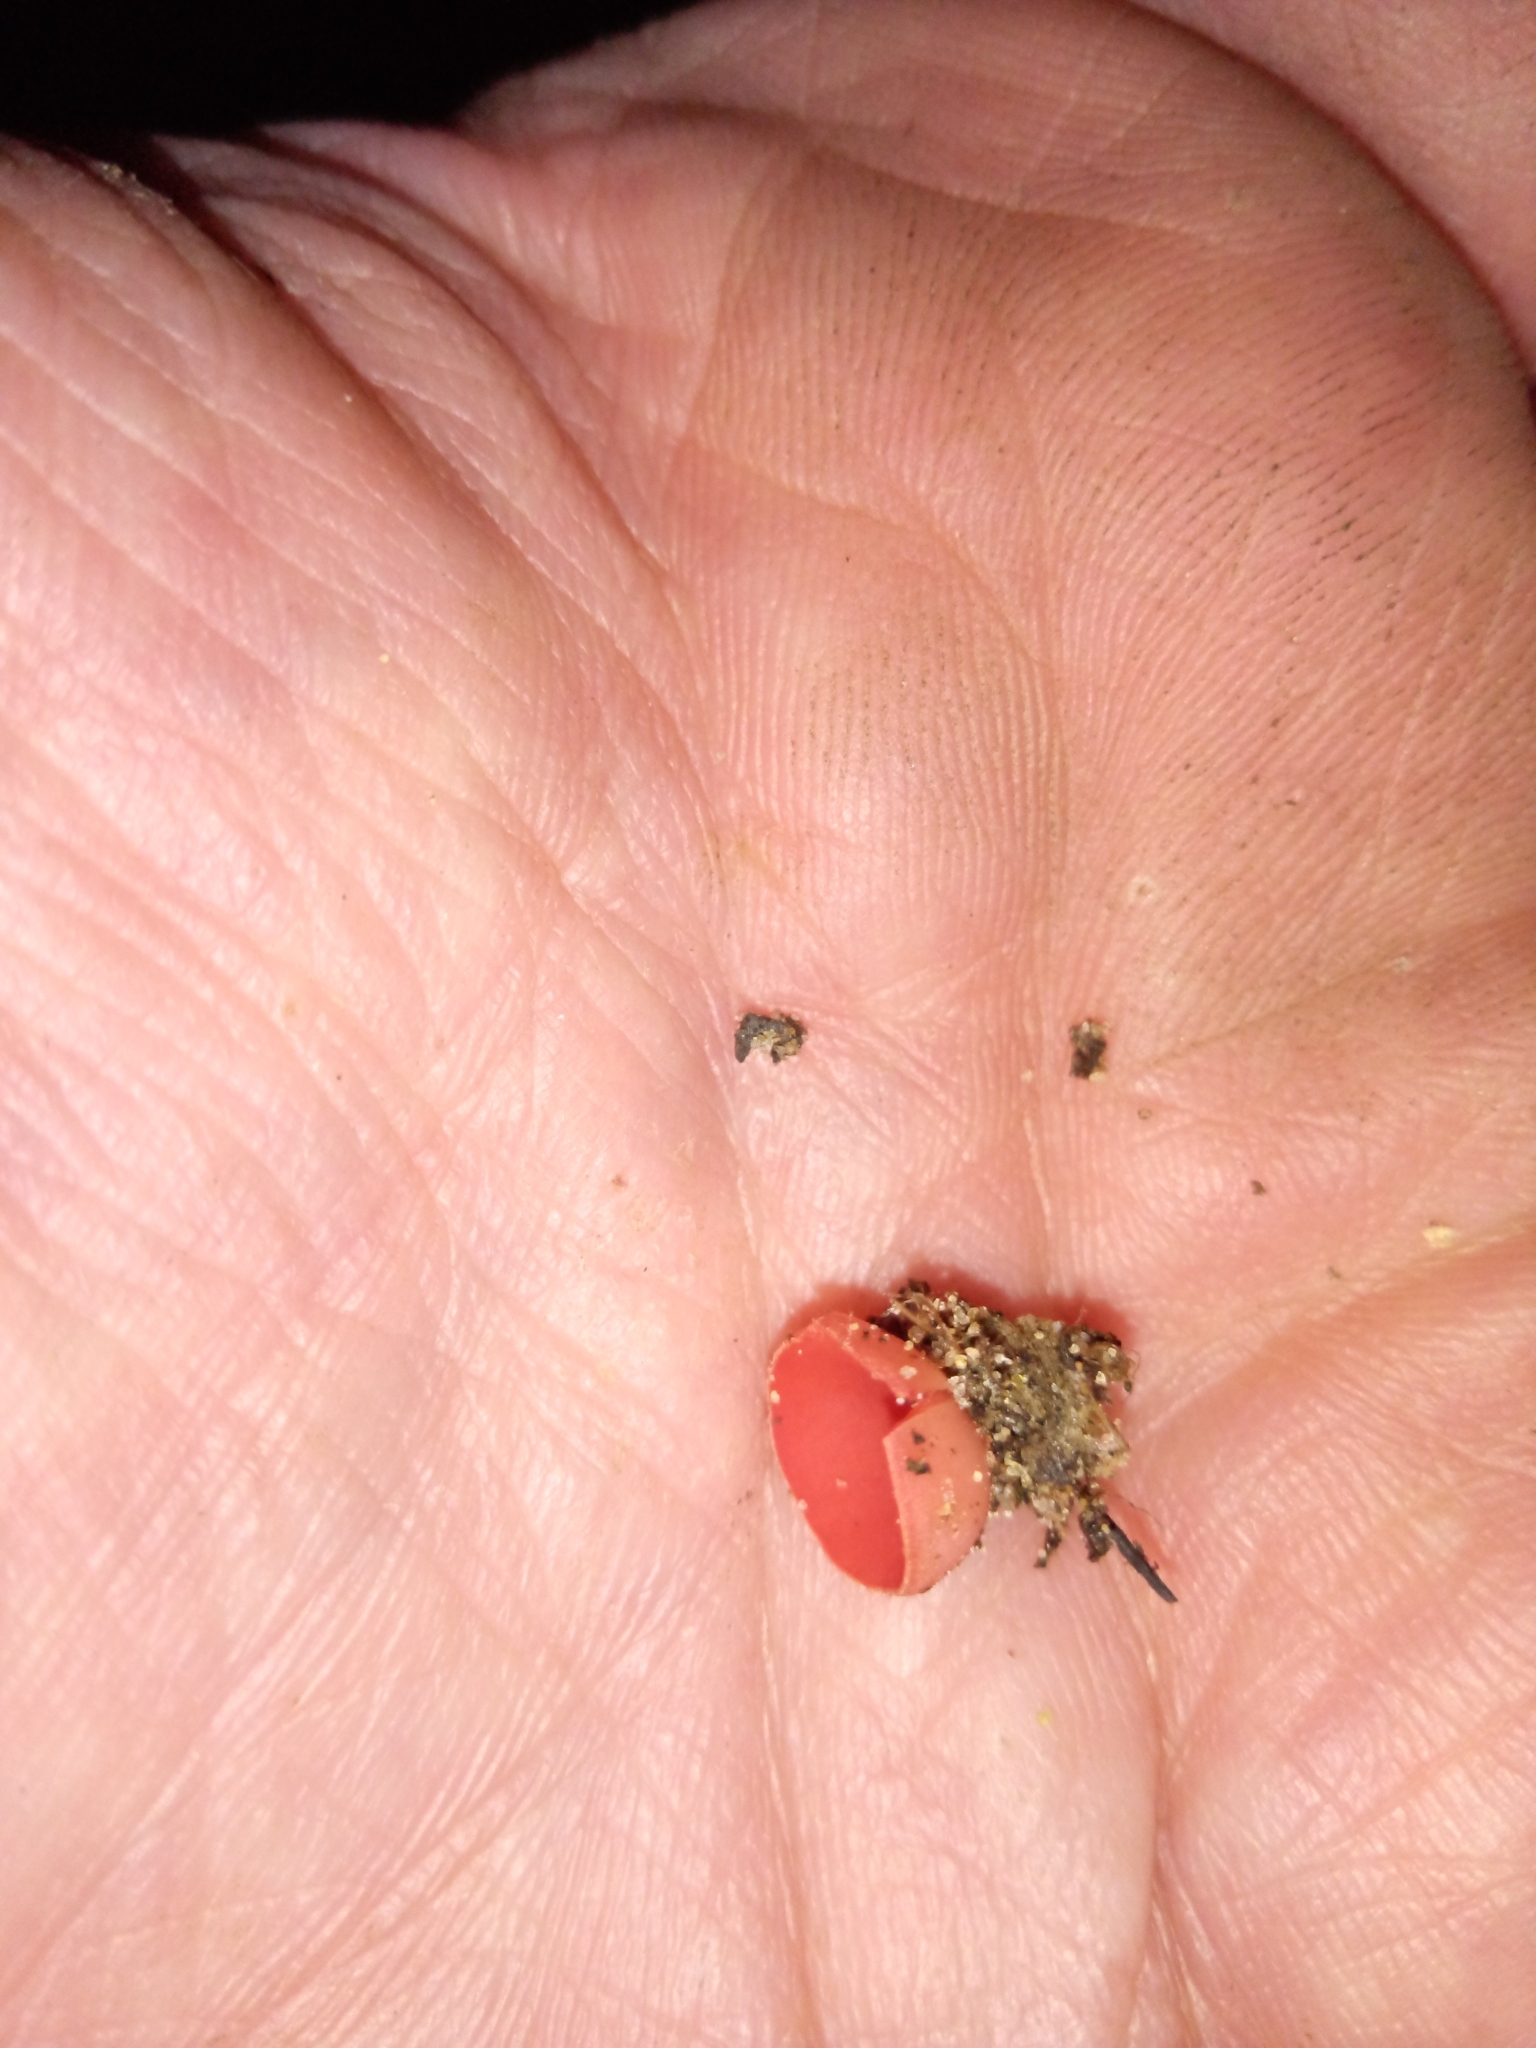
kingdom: Fungi
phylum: Ascomycota
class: Pezizomycetes
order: Pezizales
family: Sarcoscyphaceae
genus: Sarcoscypha
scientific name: Sarcoscypha occidentalis
